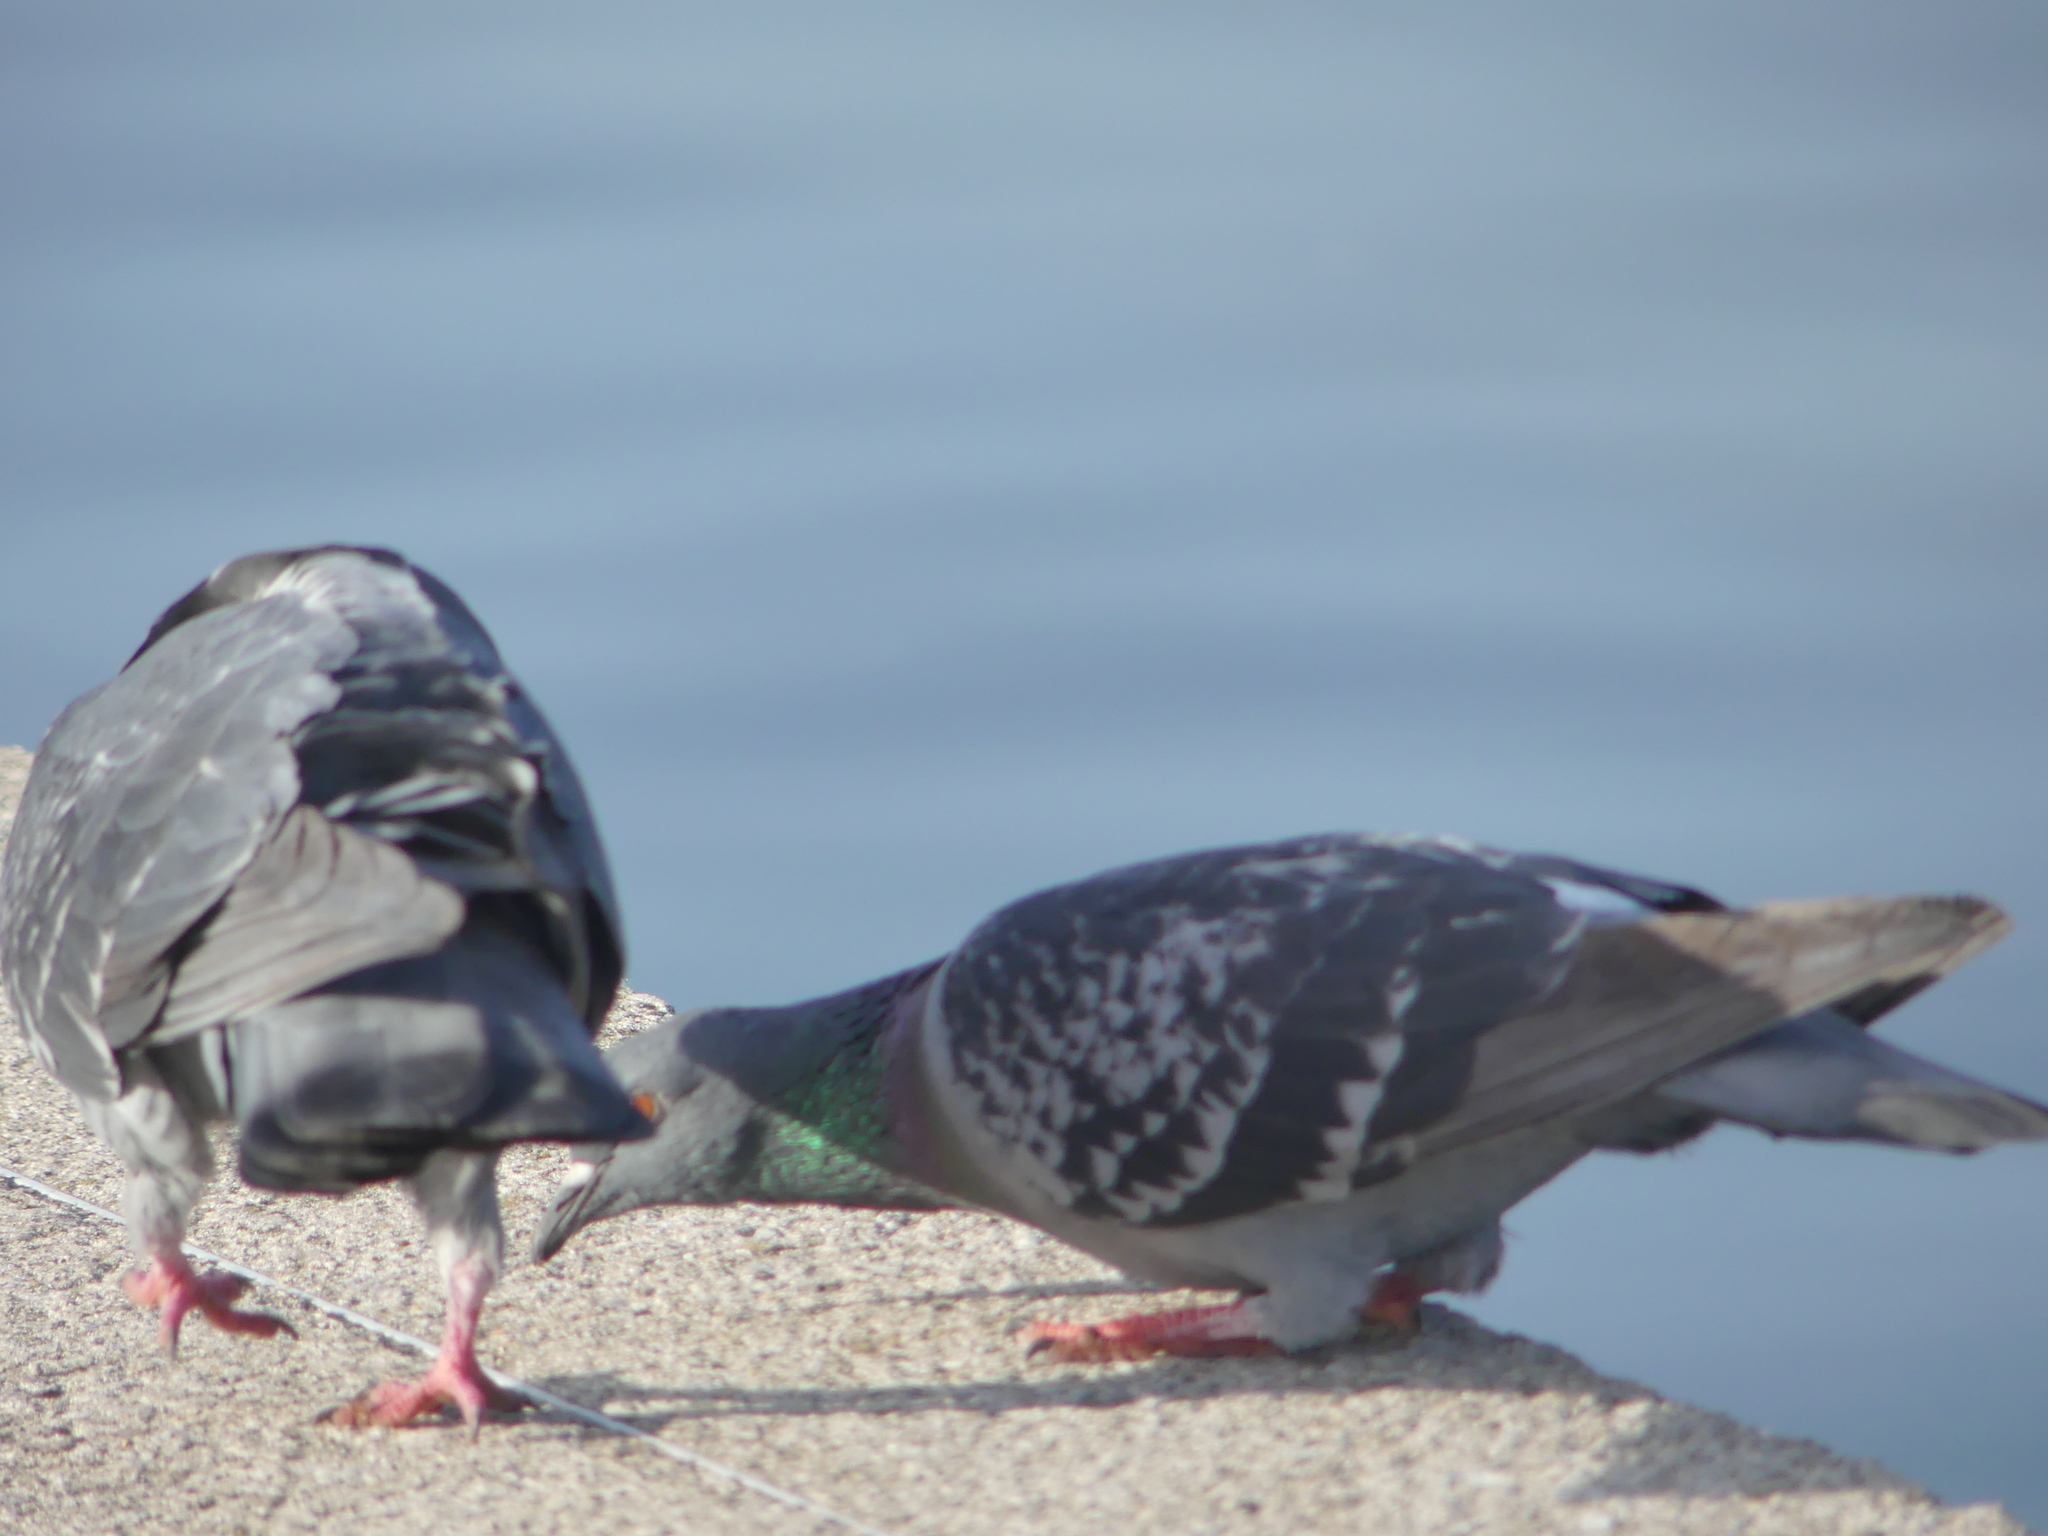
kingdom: Animalia
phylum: Chordata
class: Aves
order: Columbiformes
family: Columbidae
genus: Columba
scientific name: Columba livia
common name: Rock pigeon
